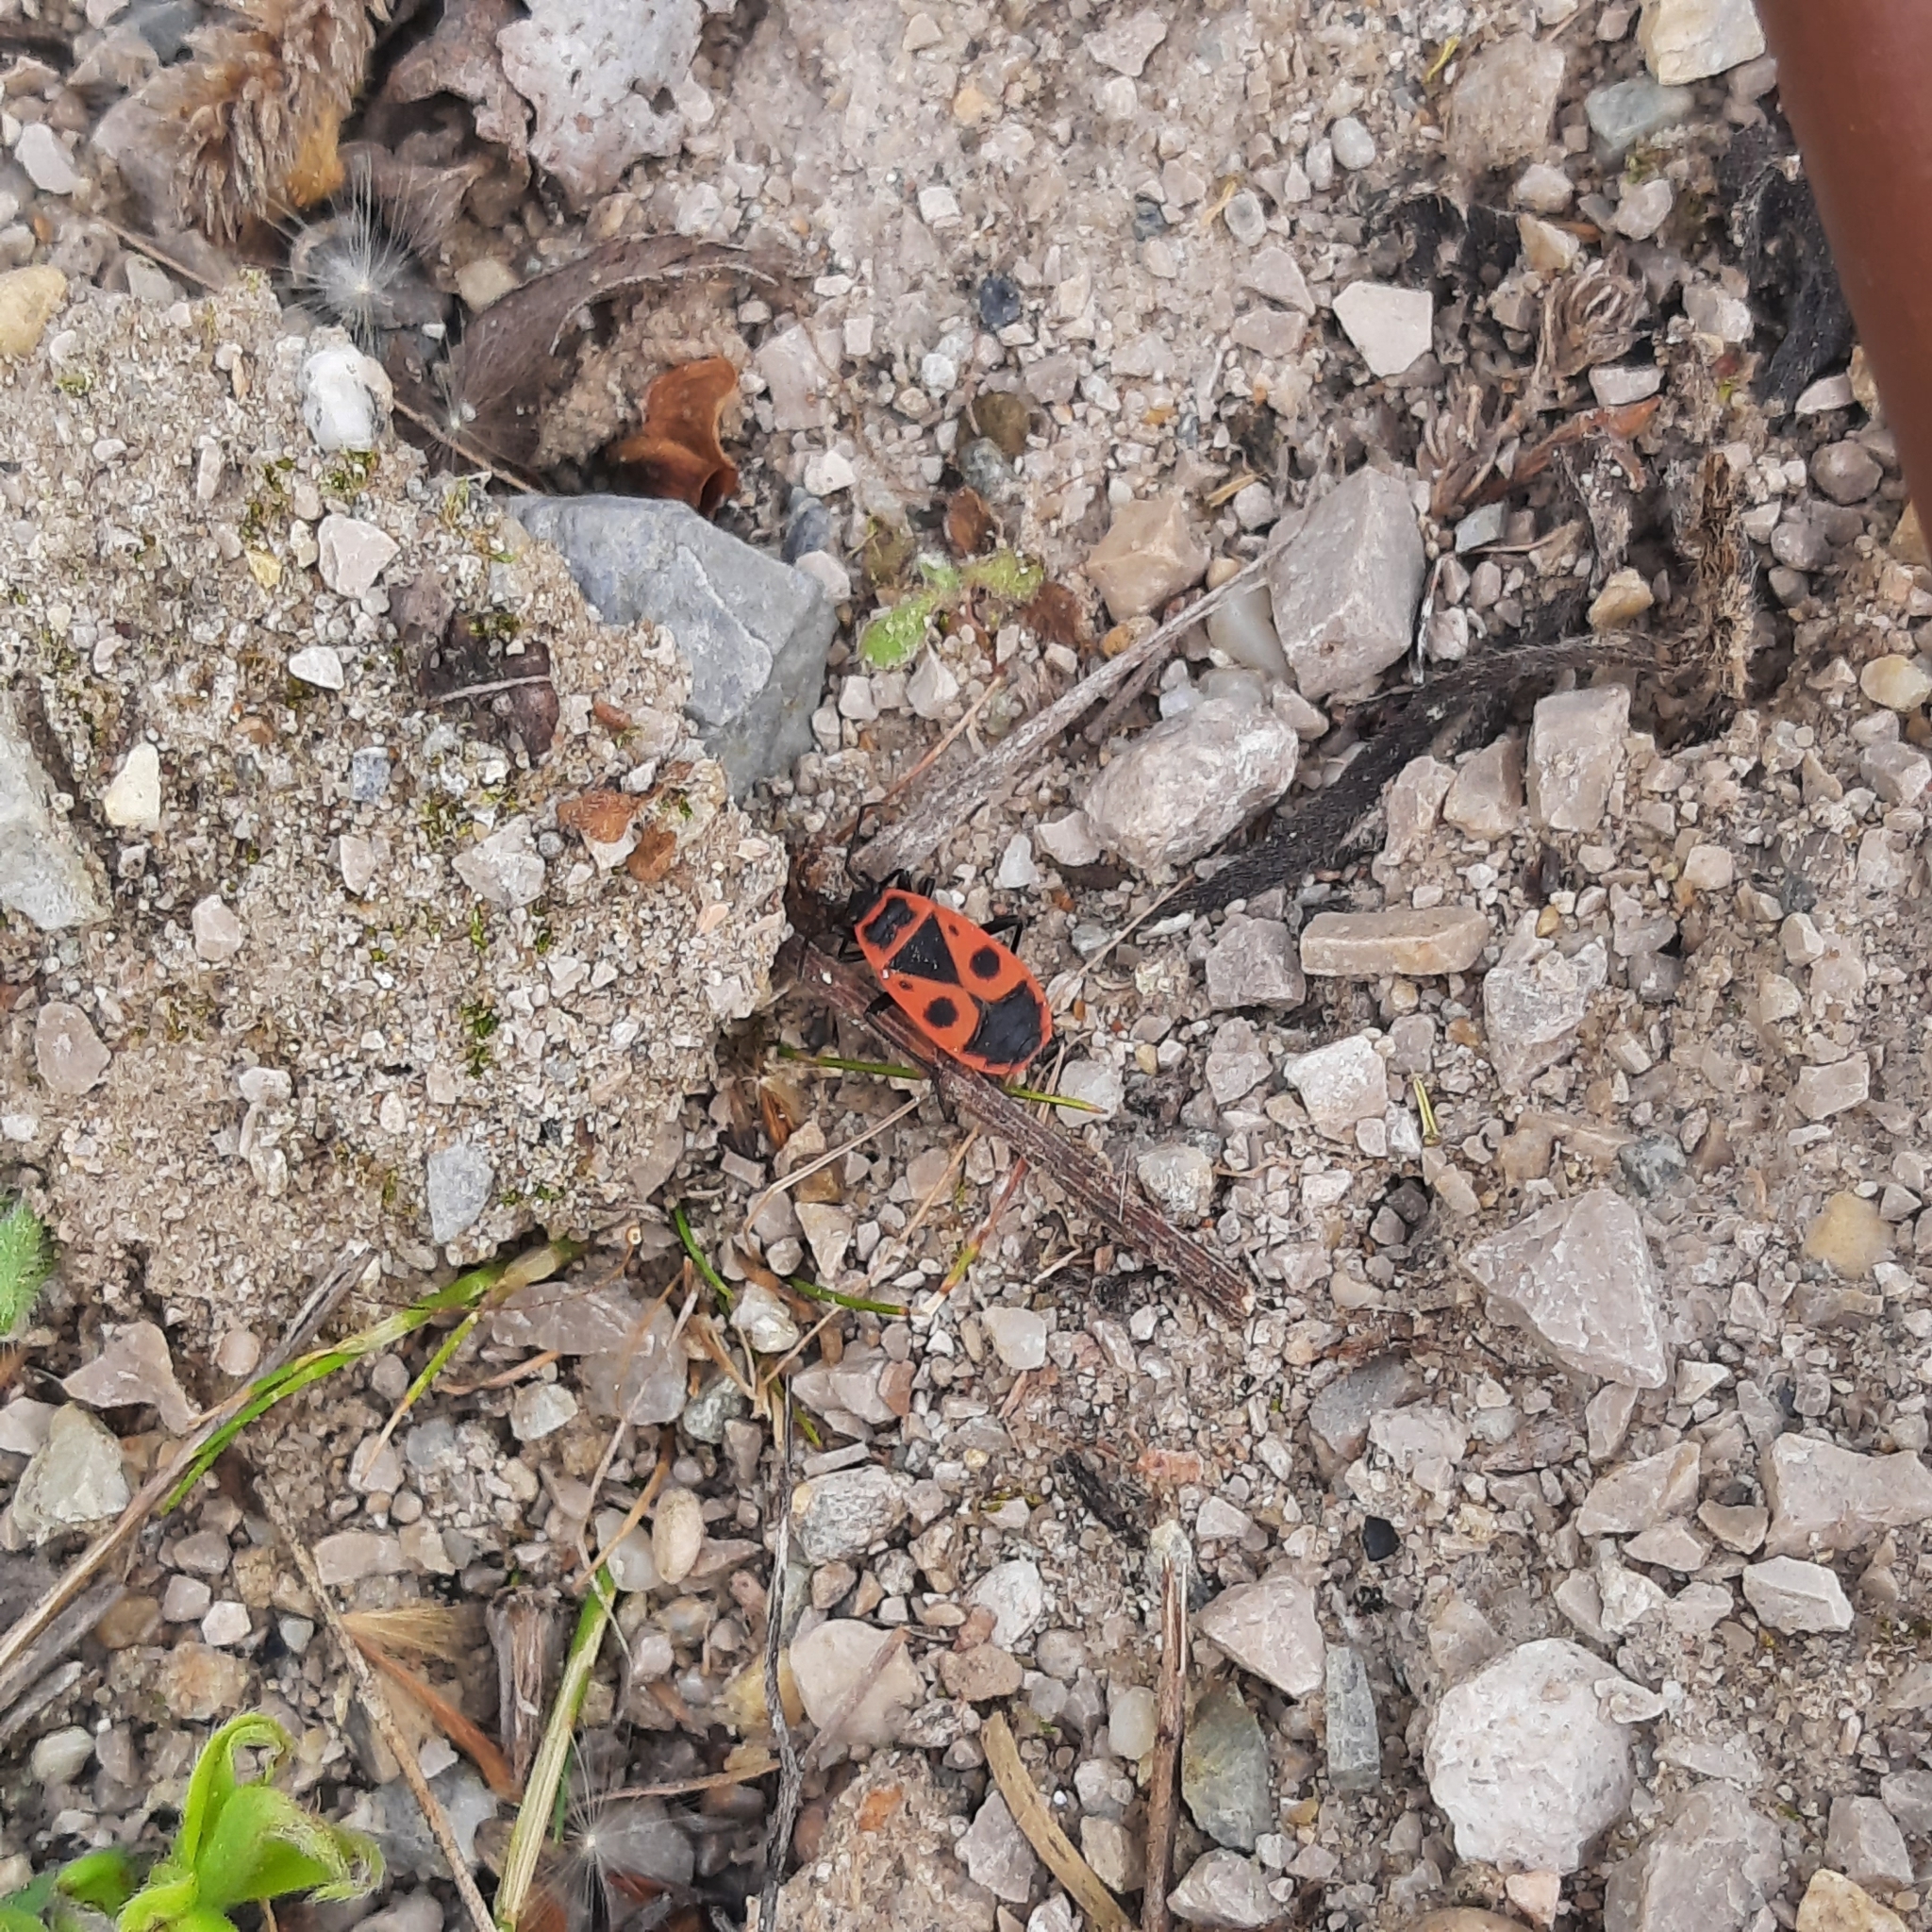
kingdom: Animalia
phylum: Arthropoda
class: Insecta
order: Hemiptera
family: Pyrrhocoridae
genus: Pyrrhocoris
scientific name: Pyrrhocoris apterus
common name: Firebug
